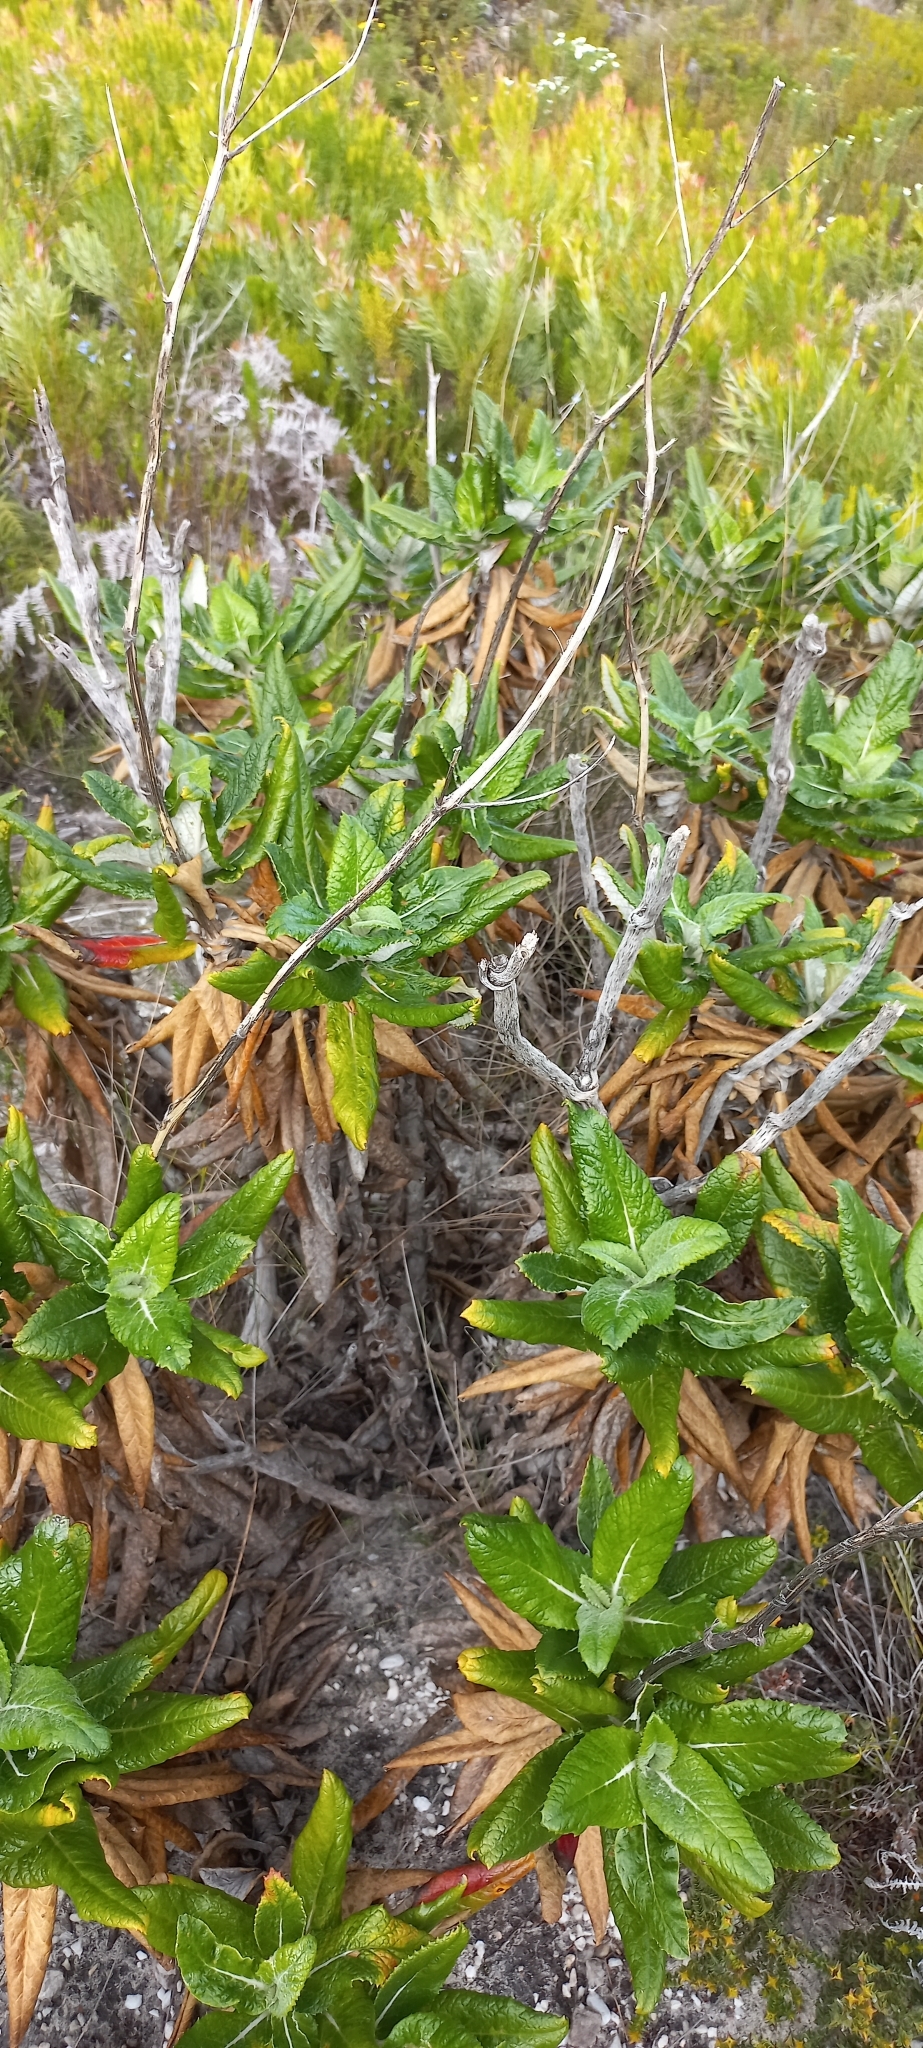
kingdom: Plantae
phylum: Tracheophyta
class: Magnoliopsida
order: Apiales
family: Apiaceae
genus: Hermas
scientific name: Hermas villosa
